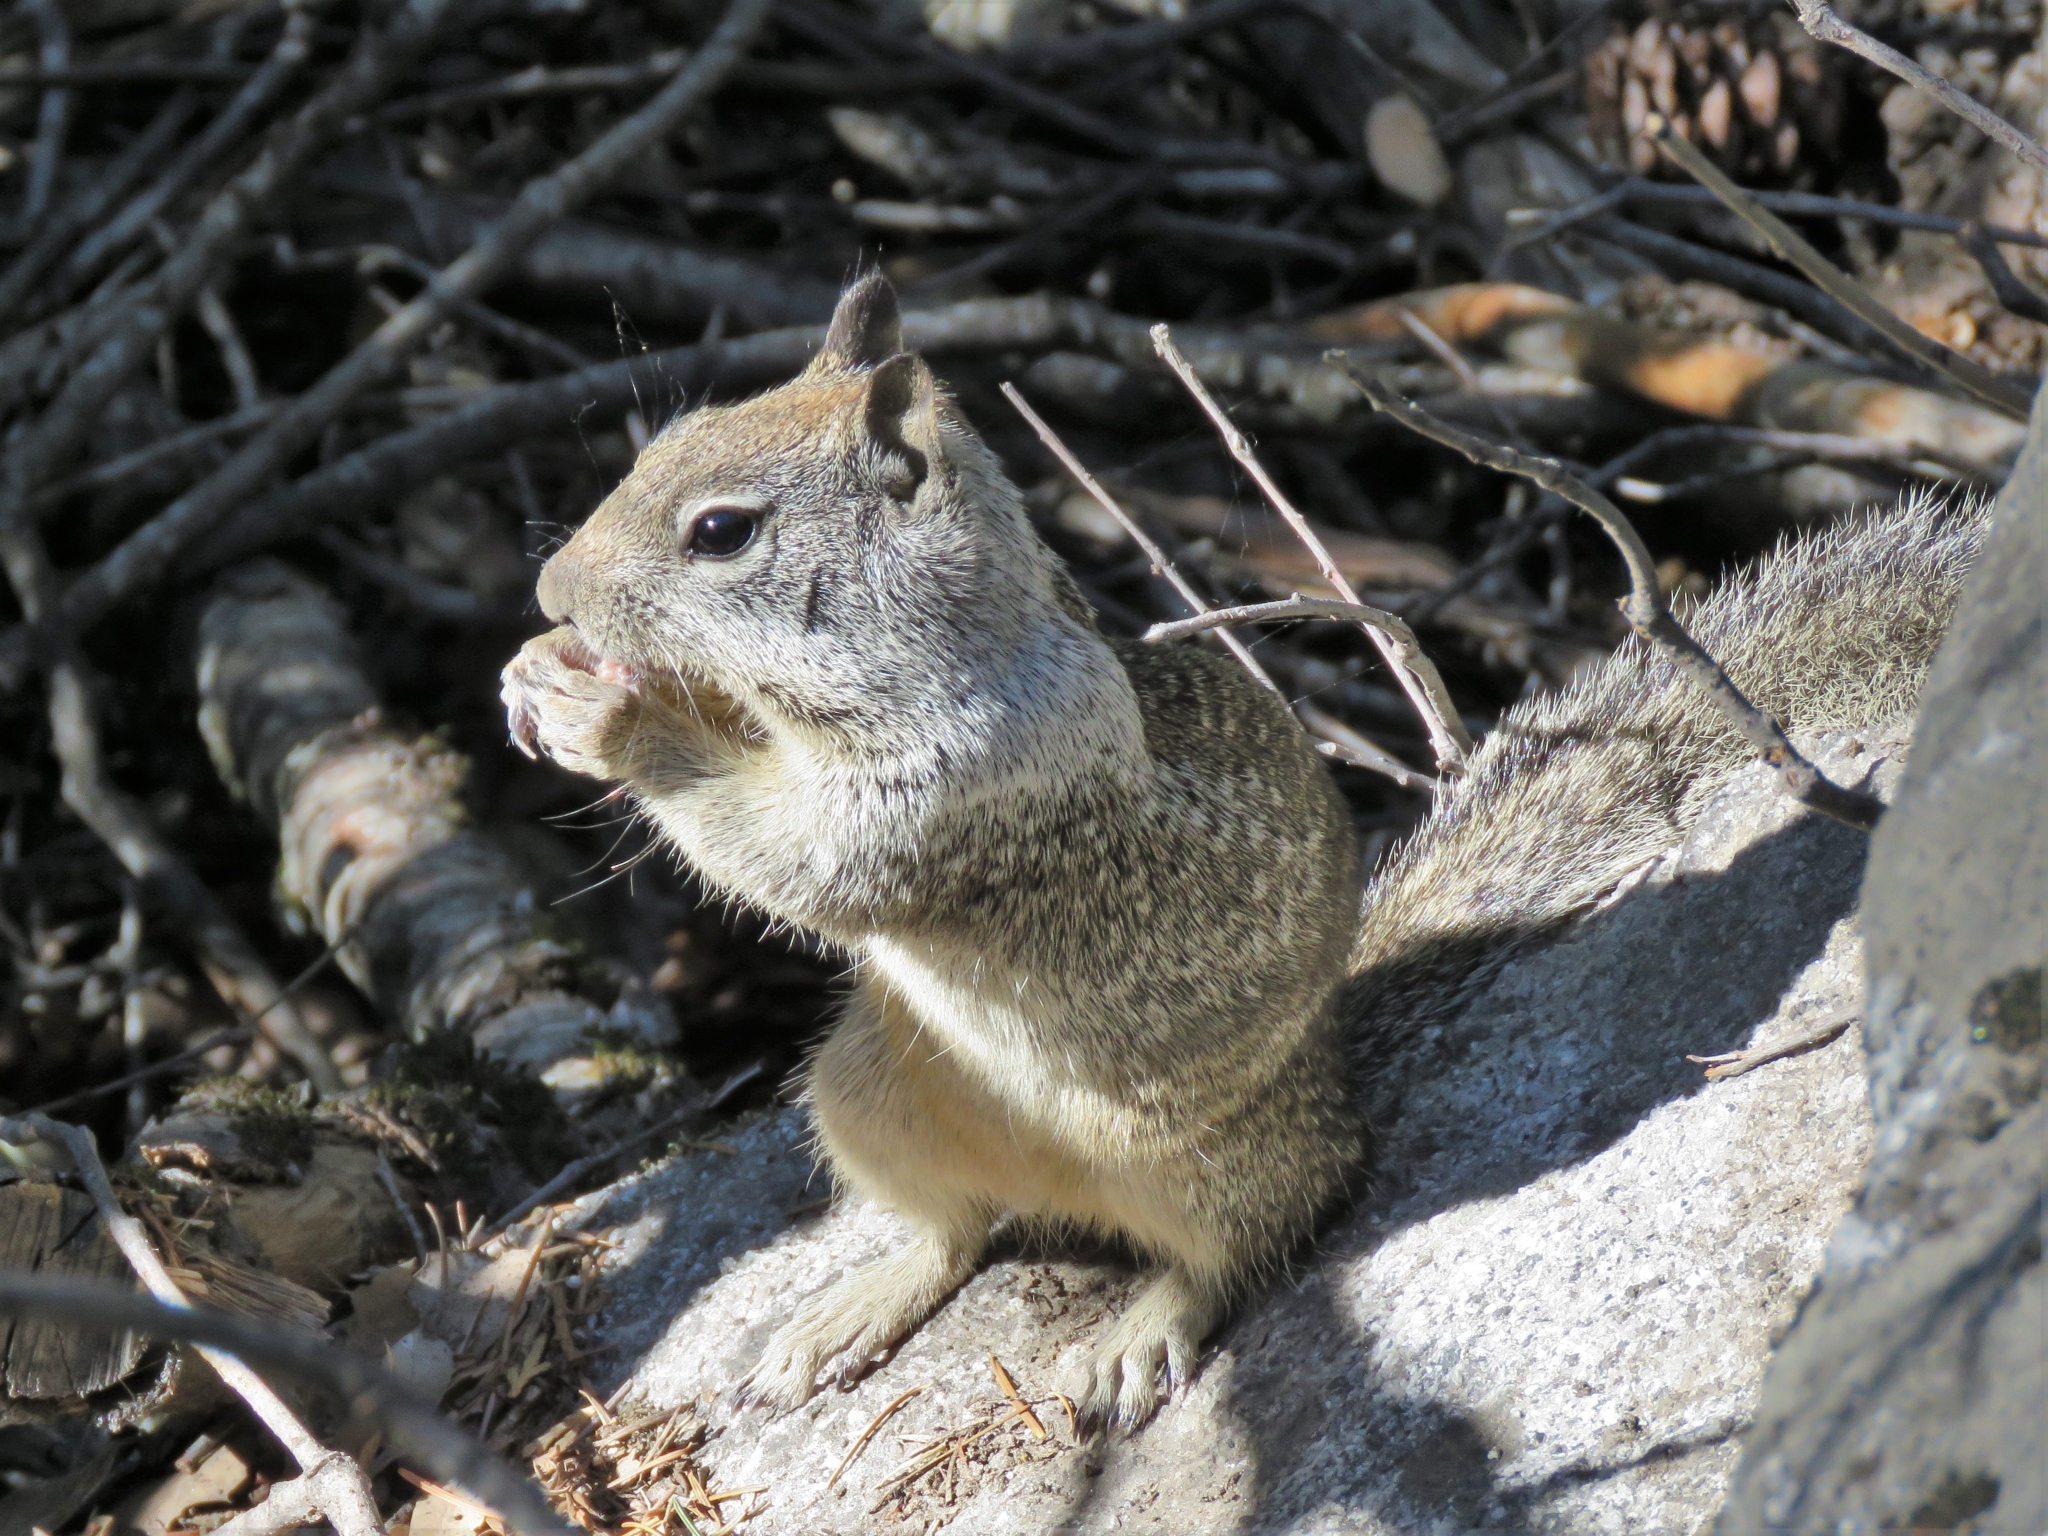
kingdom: Animalia
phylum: Chordata
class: Mammalia
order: Rodentia
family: Sciuridae
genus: Otospermophilus
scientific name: Otospermophilus beecheyi
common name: California ground squirrel
